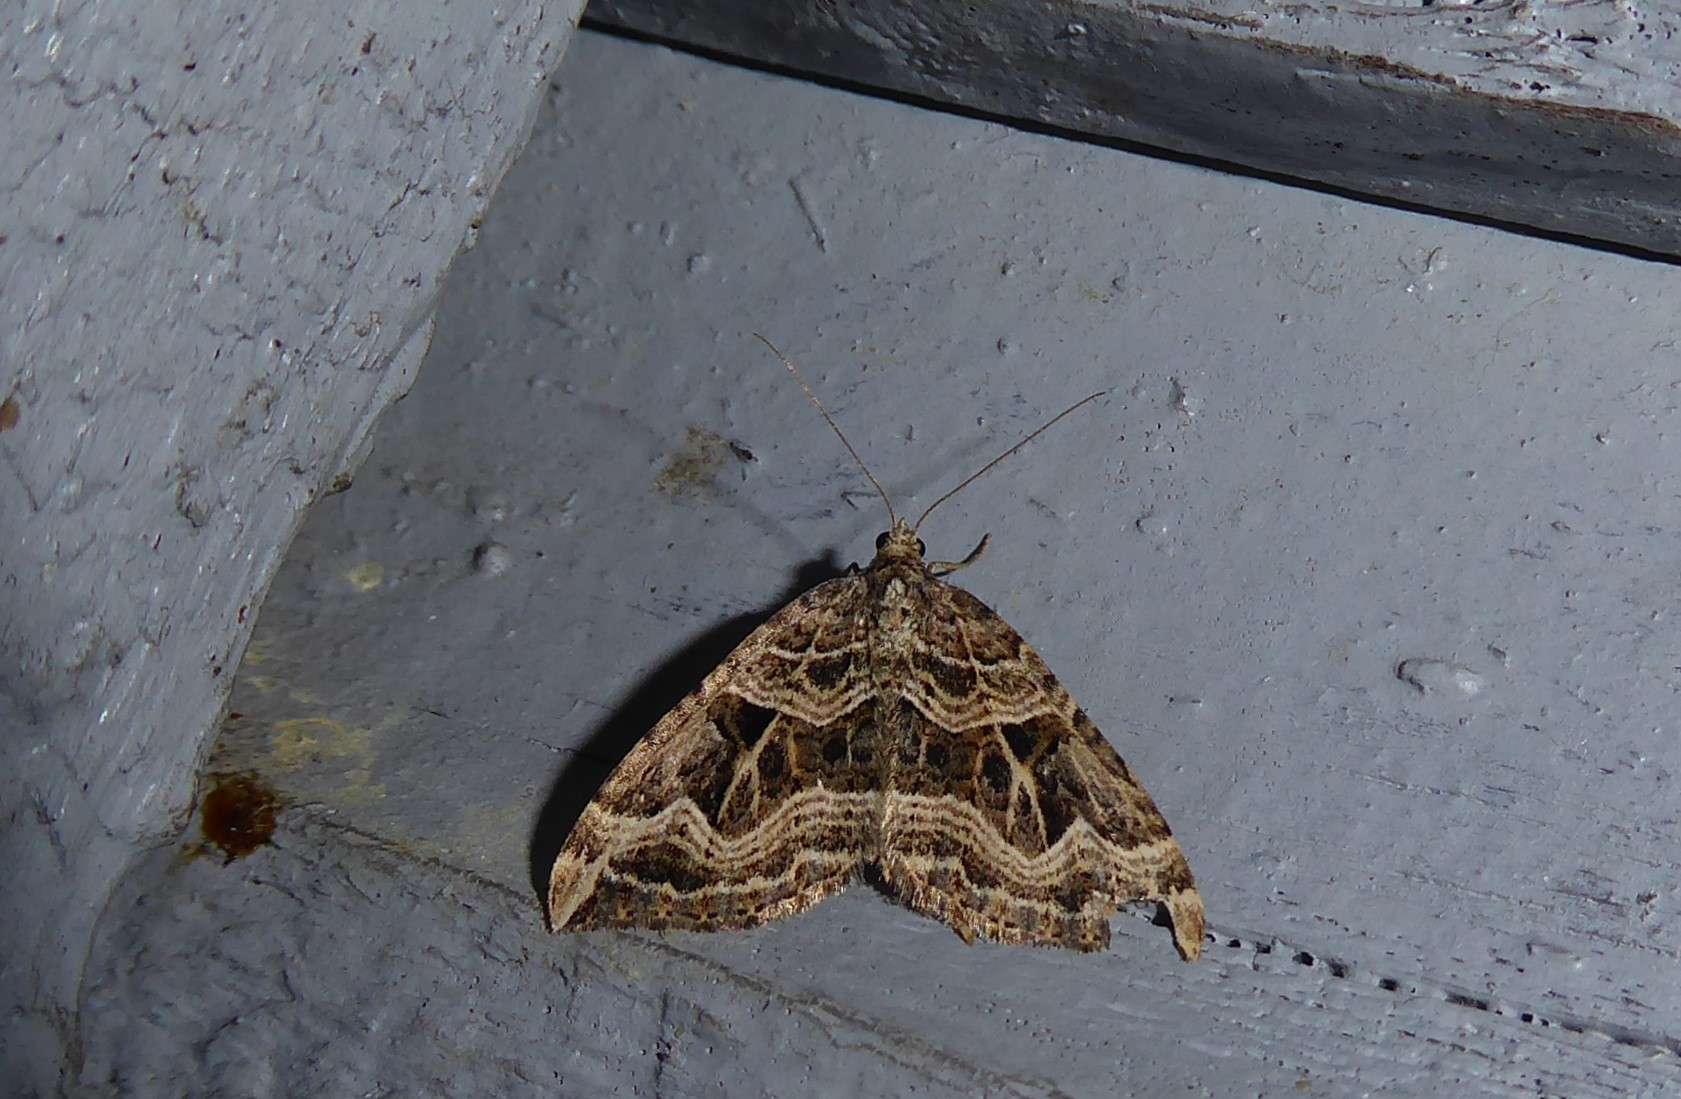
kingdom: Animalia
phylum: Arthropoda
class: Insecta
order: Lepidoptera
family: Geometridae
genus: Xanthorhoe
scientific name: Xanthorhoe semifissata
